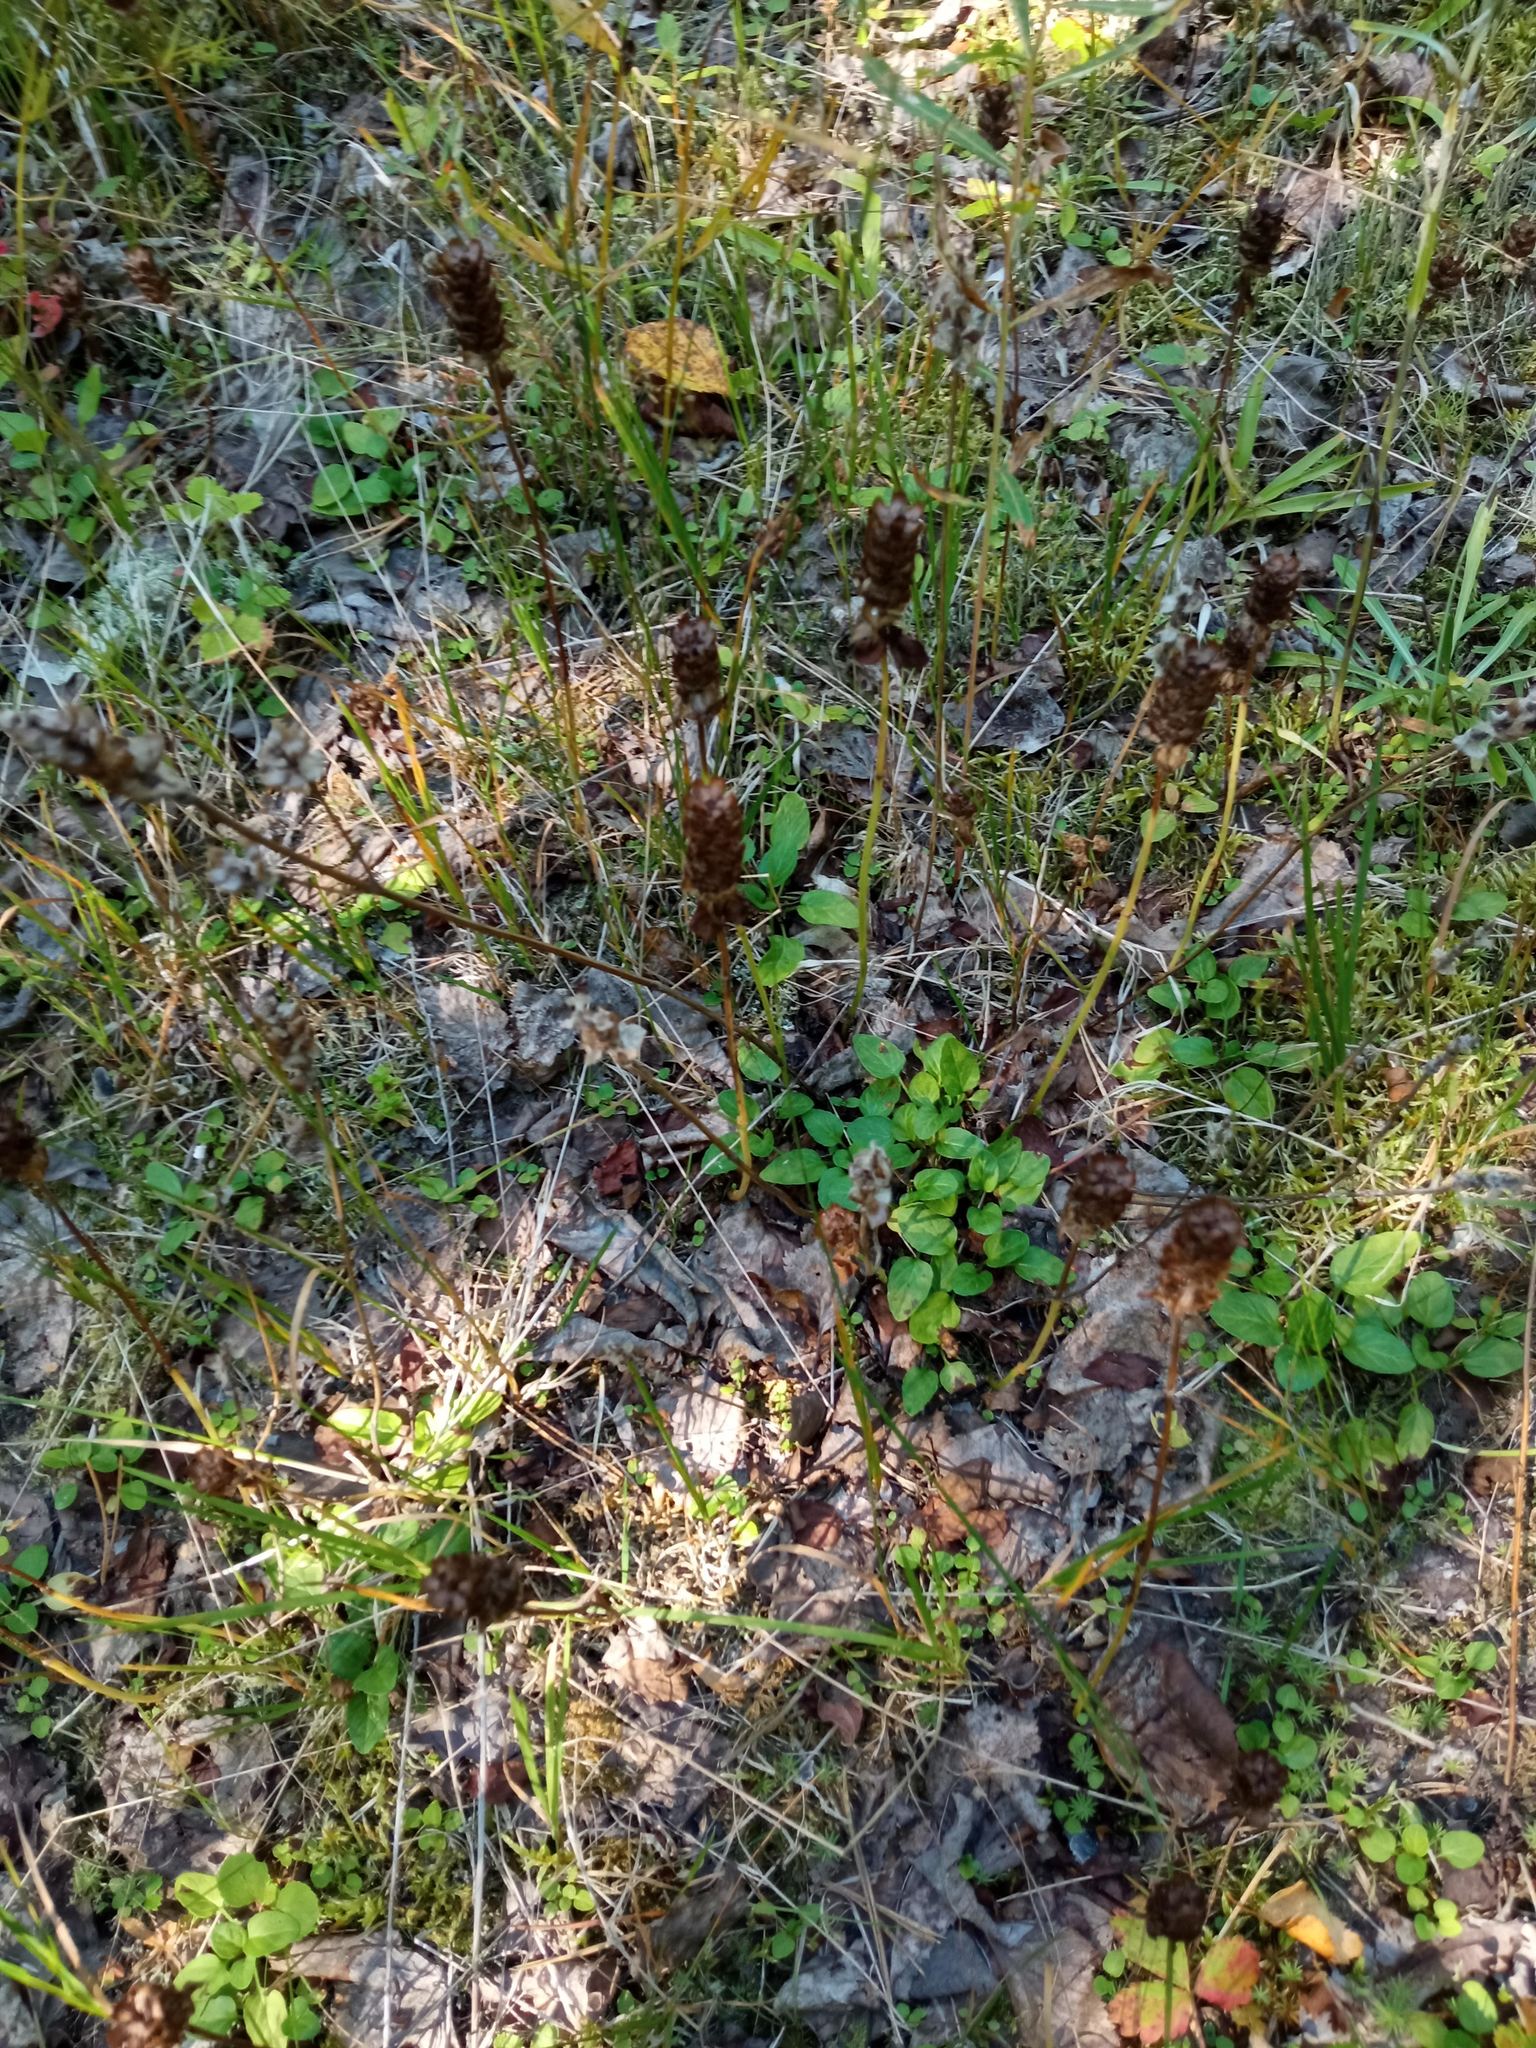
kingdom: Plantae
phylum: Tracheophyta
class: Magnoliopsida
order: Lamiales
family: Lamiaceae
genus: Prunella
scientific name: Prunella vulgaris
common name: Heal-all
